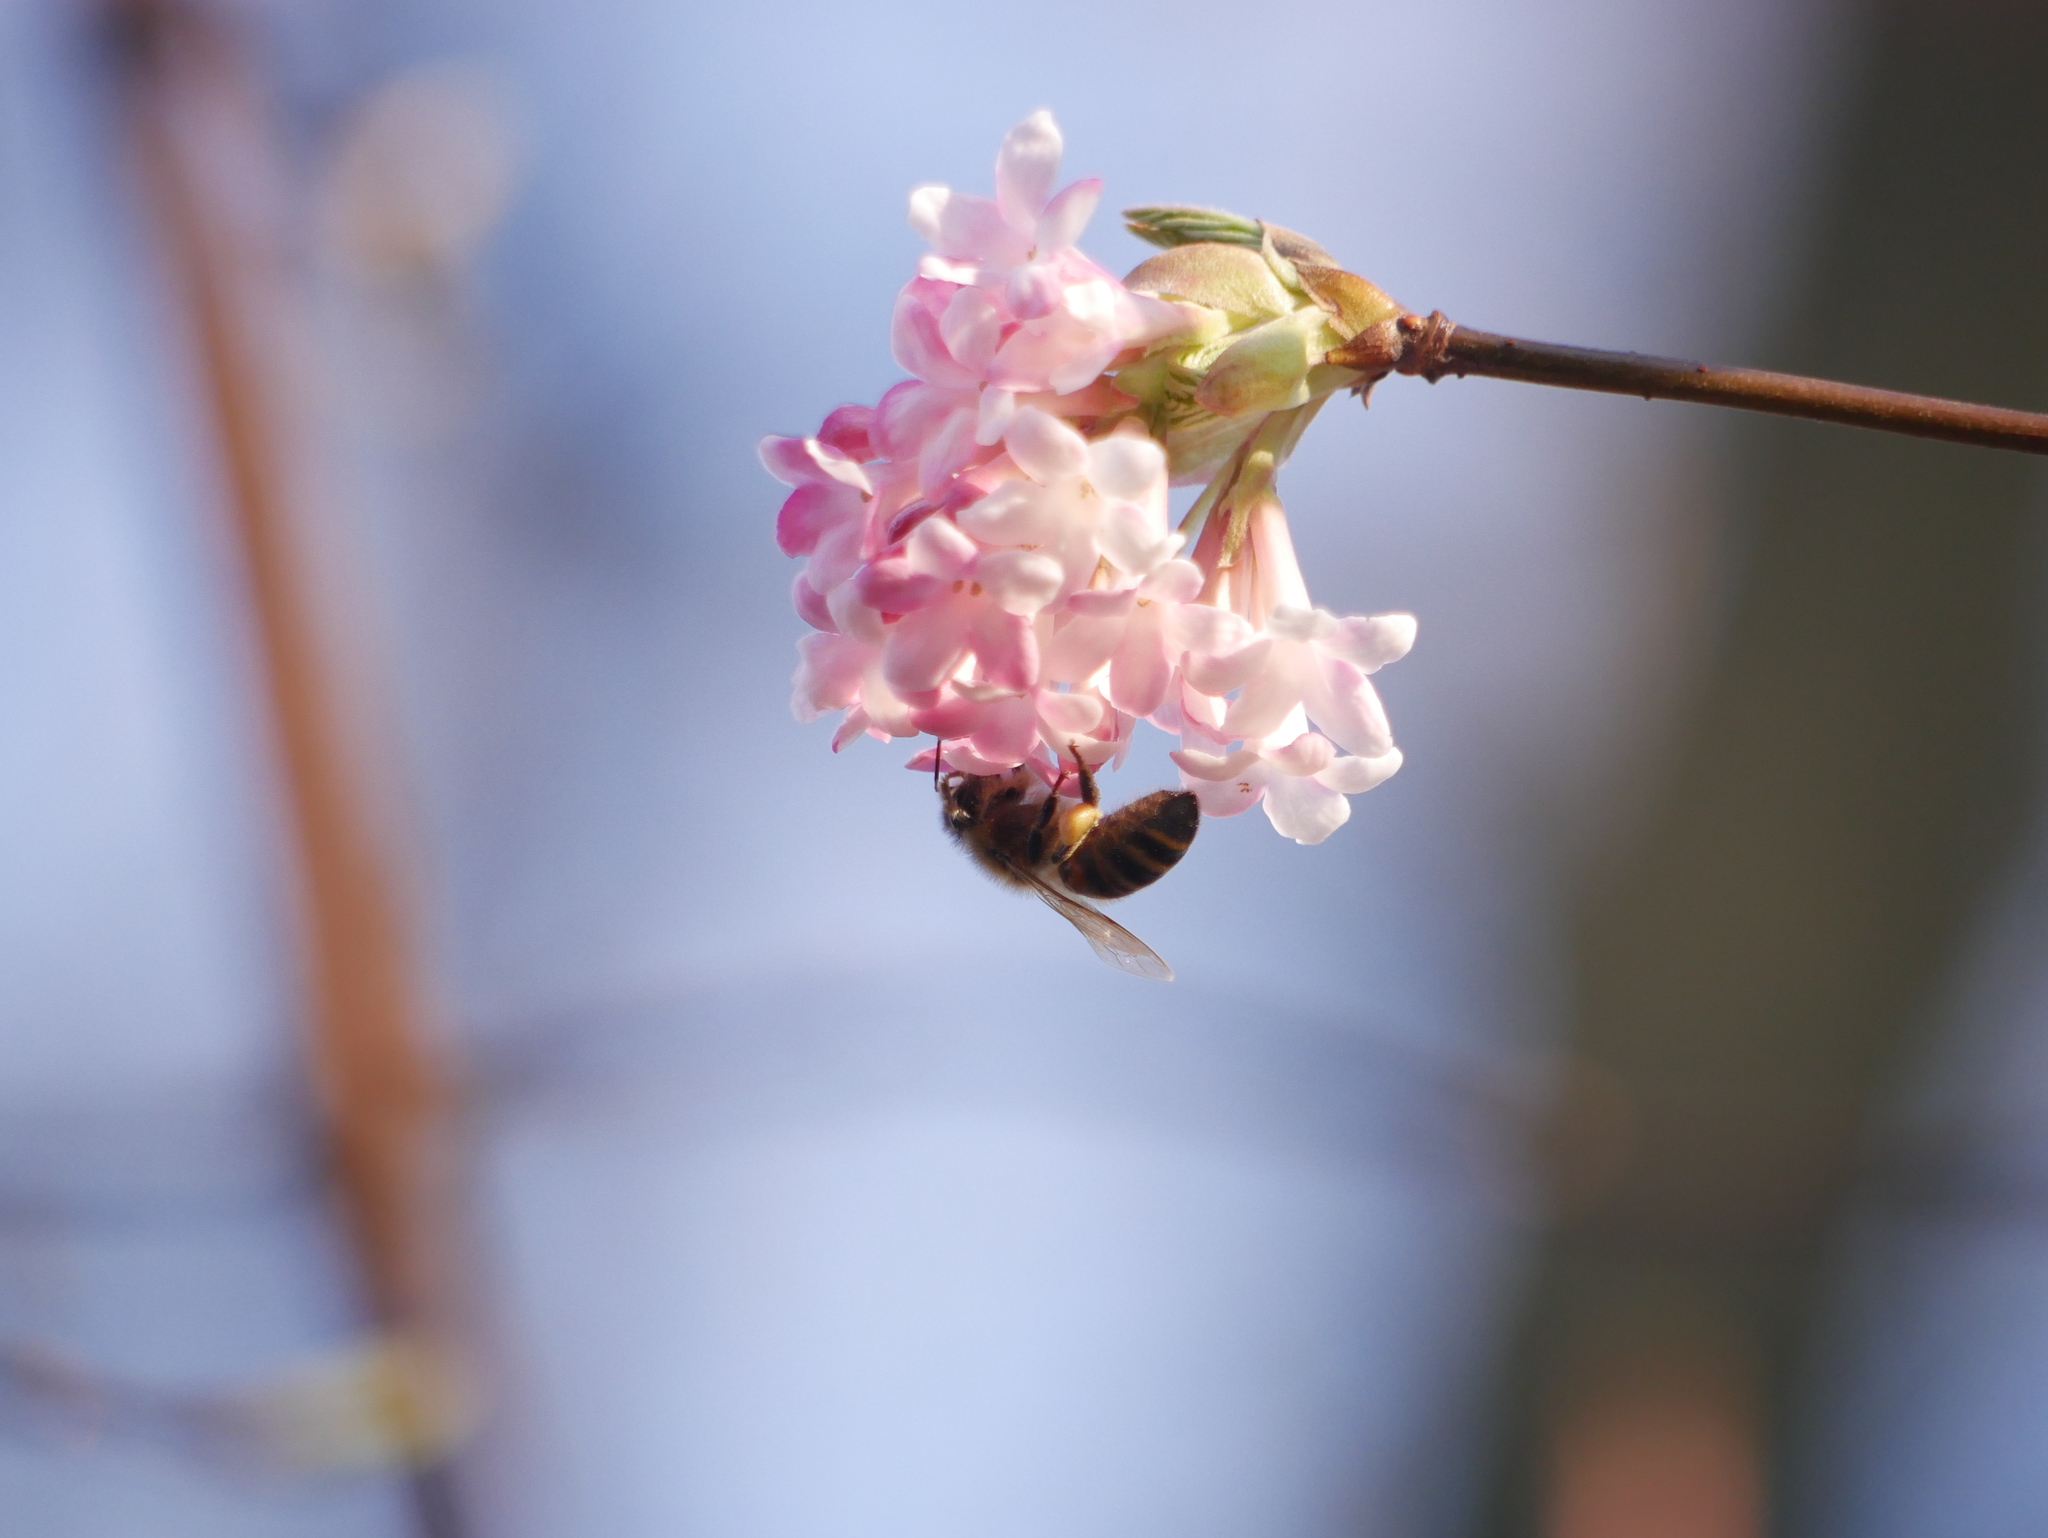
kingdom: Animalia
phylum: Arthropoda
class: Insecta
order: Hymenoptera
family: Apidae
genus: Apis
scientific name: Apis mellifera
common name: Honey bee
